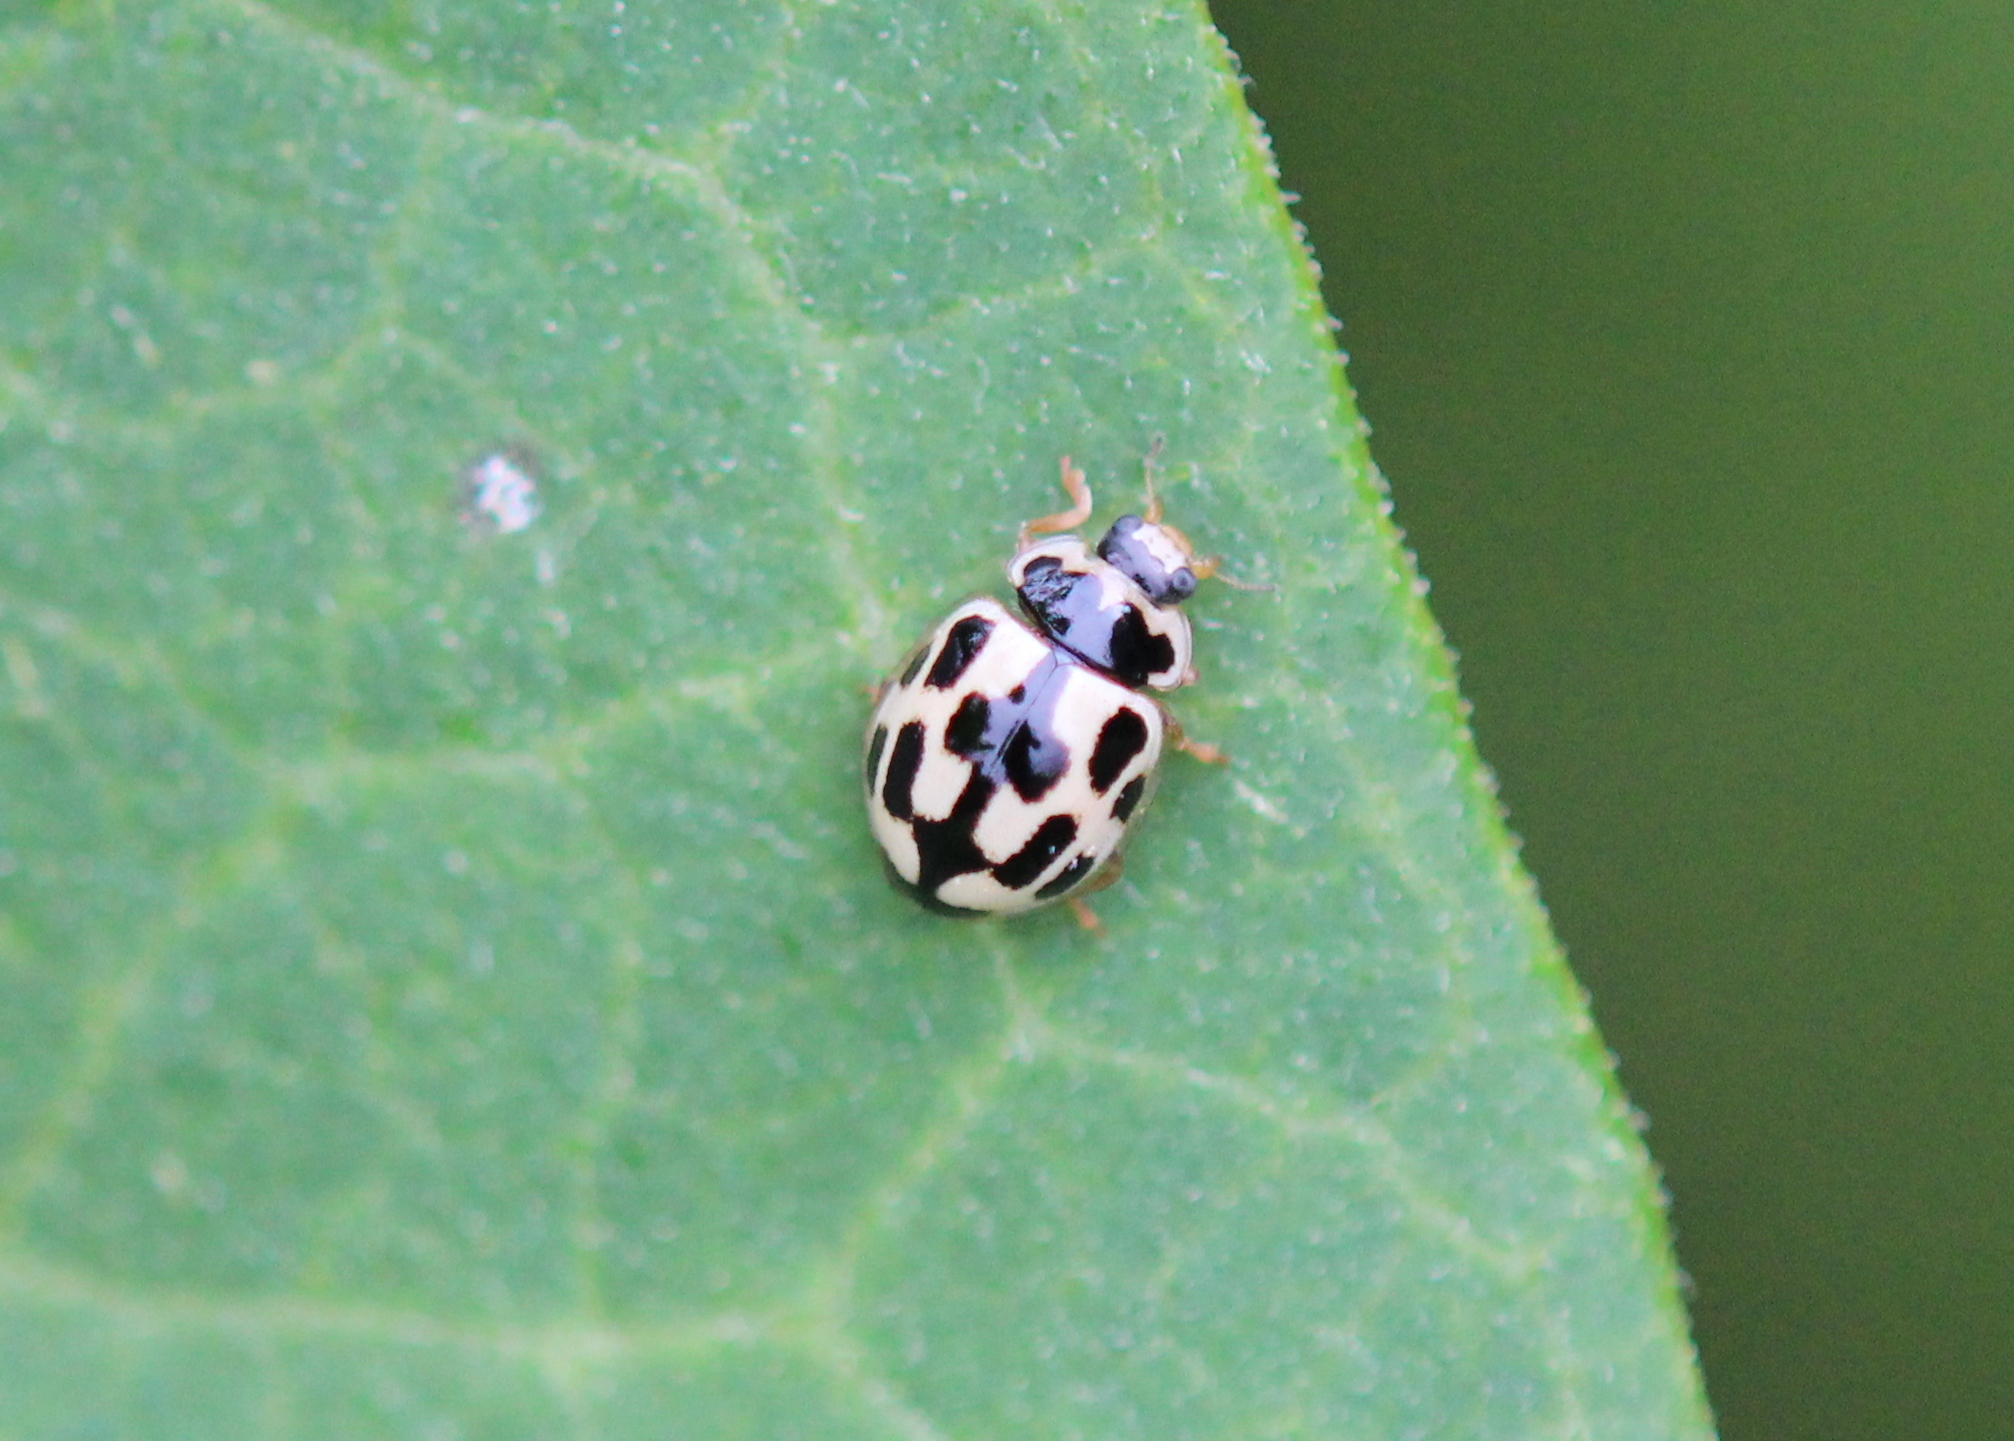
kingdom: Animalia
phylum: Arthropoda
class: Insecta
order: Coleoptera
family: Coccinellidae
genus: Propylaea
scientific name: Propylaea quatuordecimpunctata
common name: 14-spotted ladybird beetle
